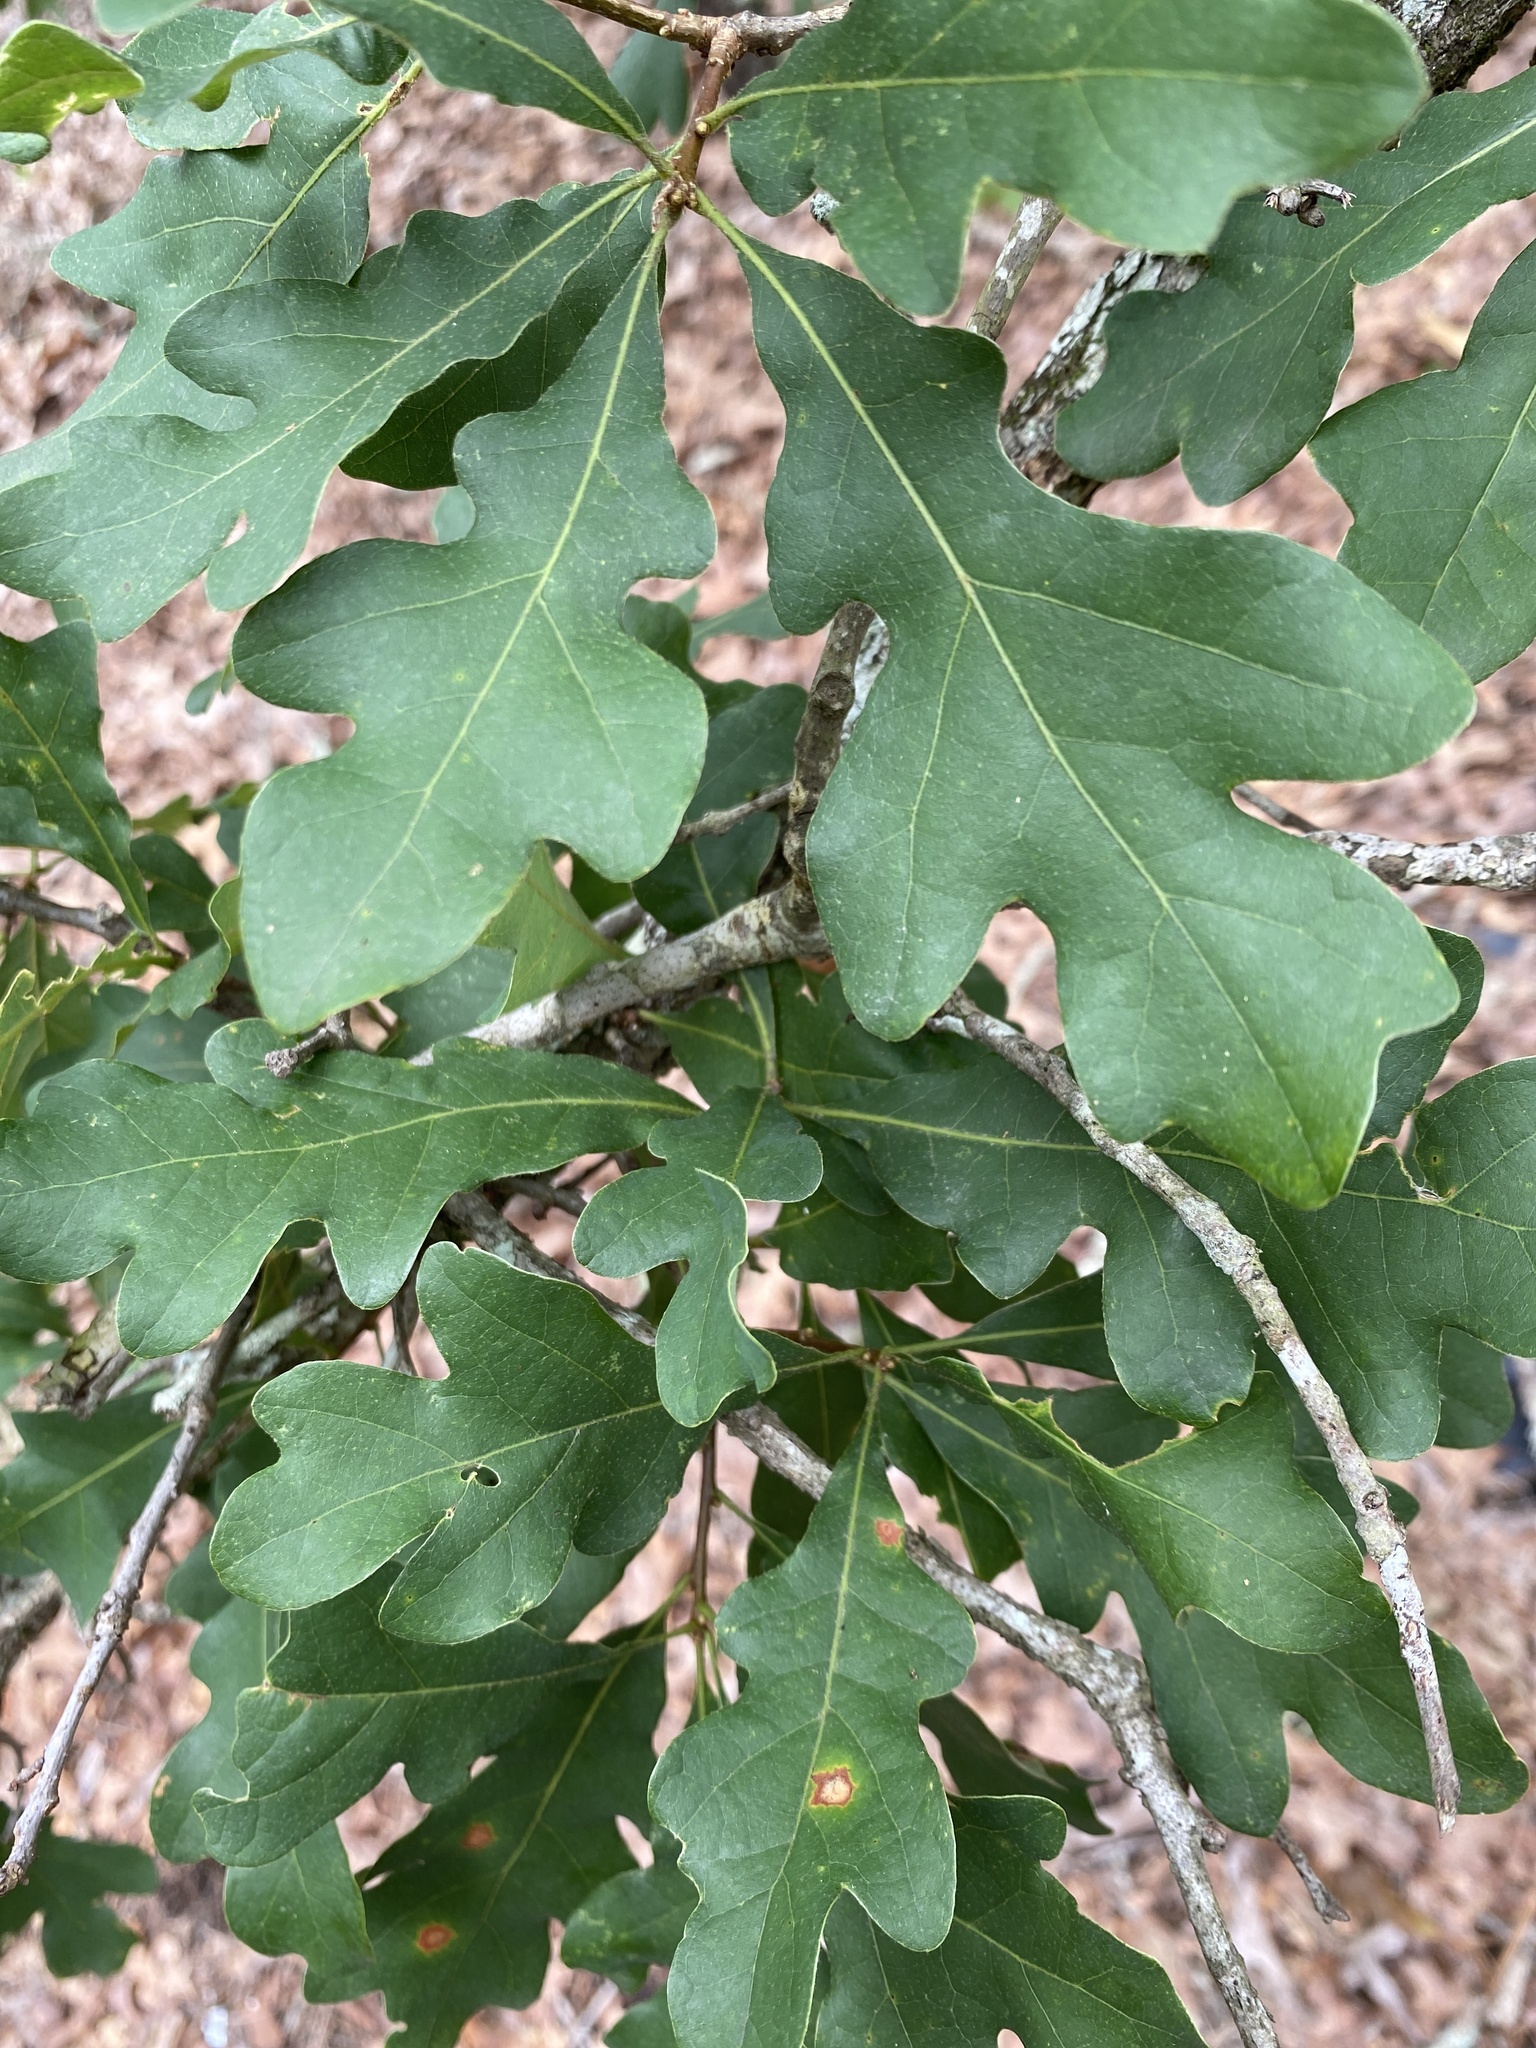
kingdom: Plantae
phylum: Tracheophyta
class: Magnoliopsida
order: Fagales
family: Fagaceae
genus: Quercus
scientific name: Quercus margaretiae
